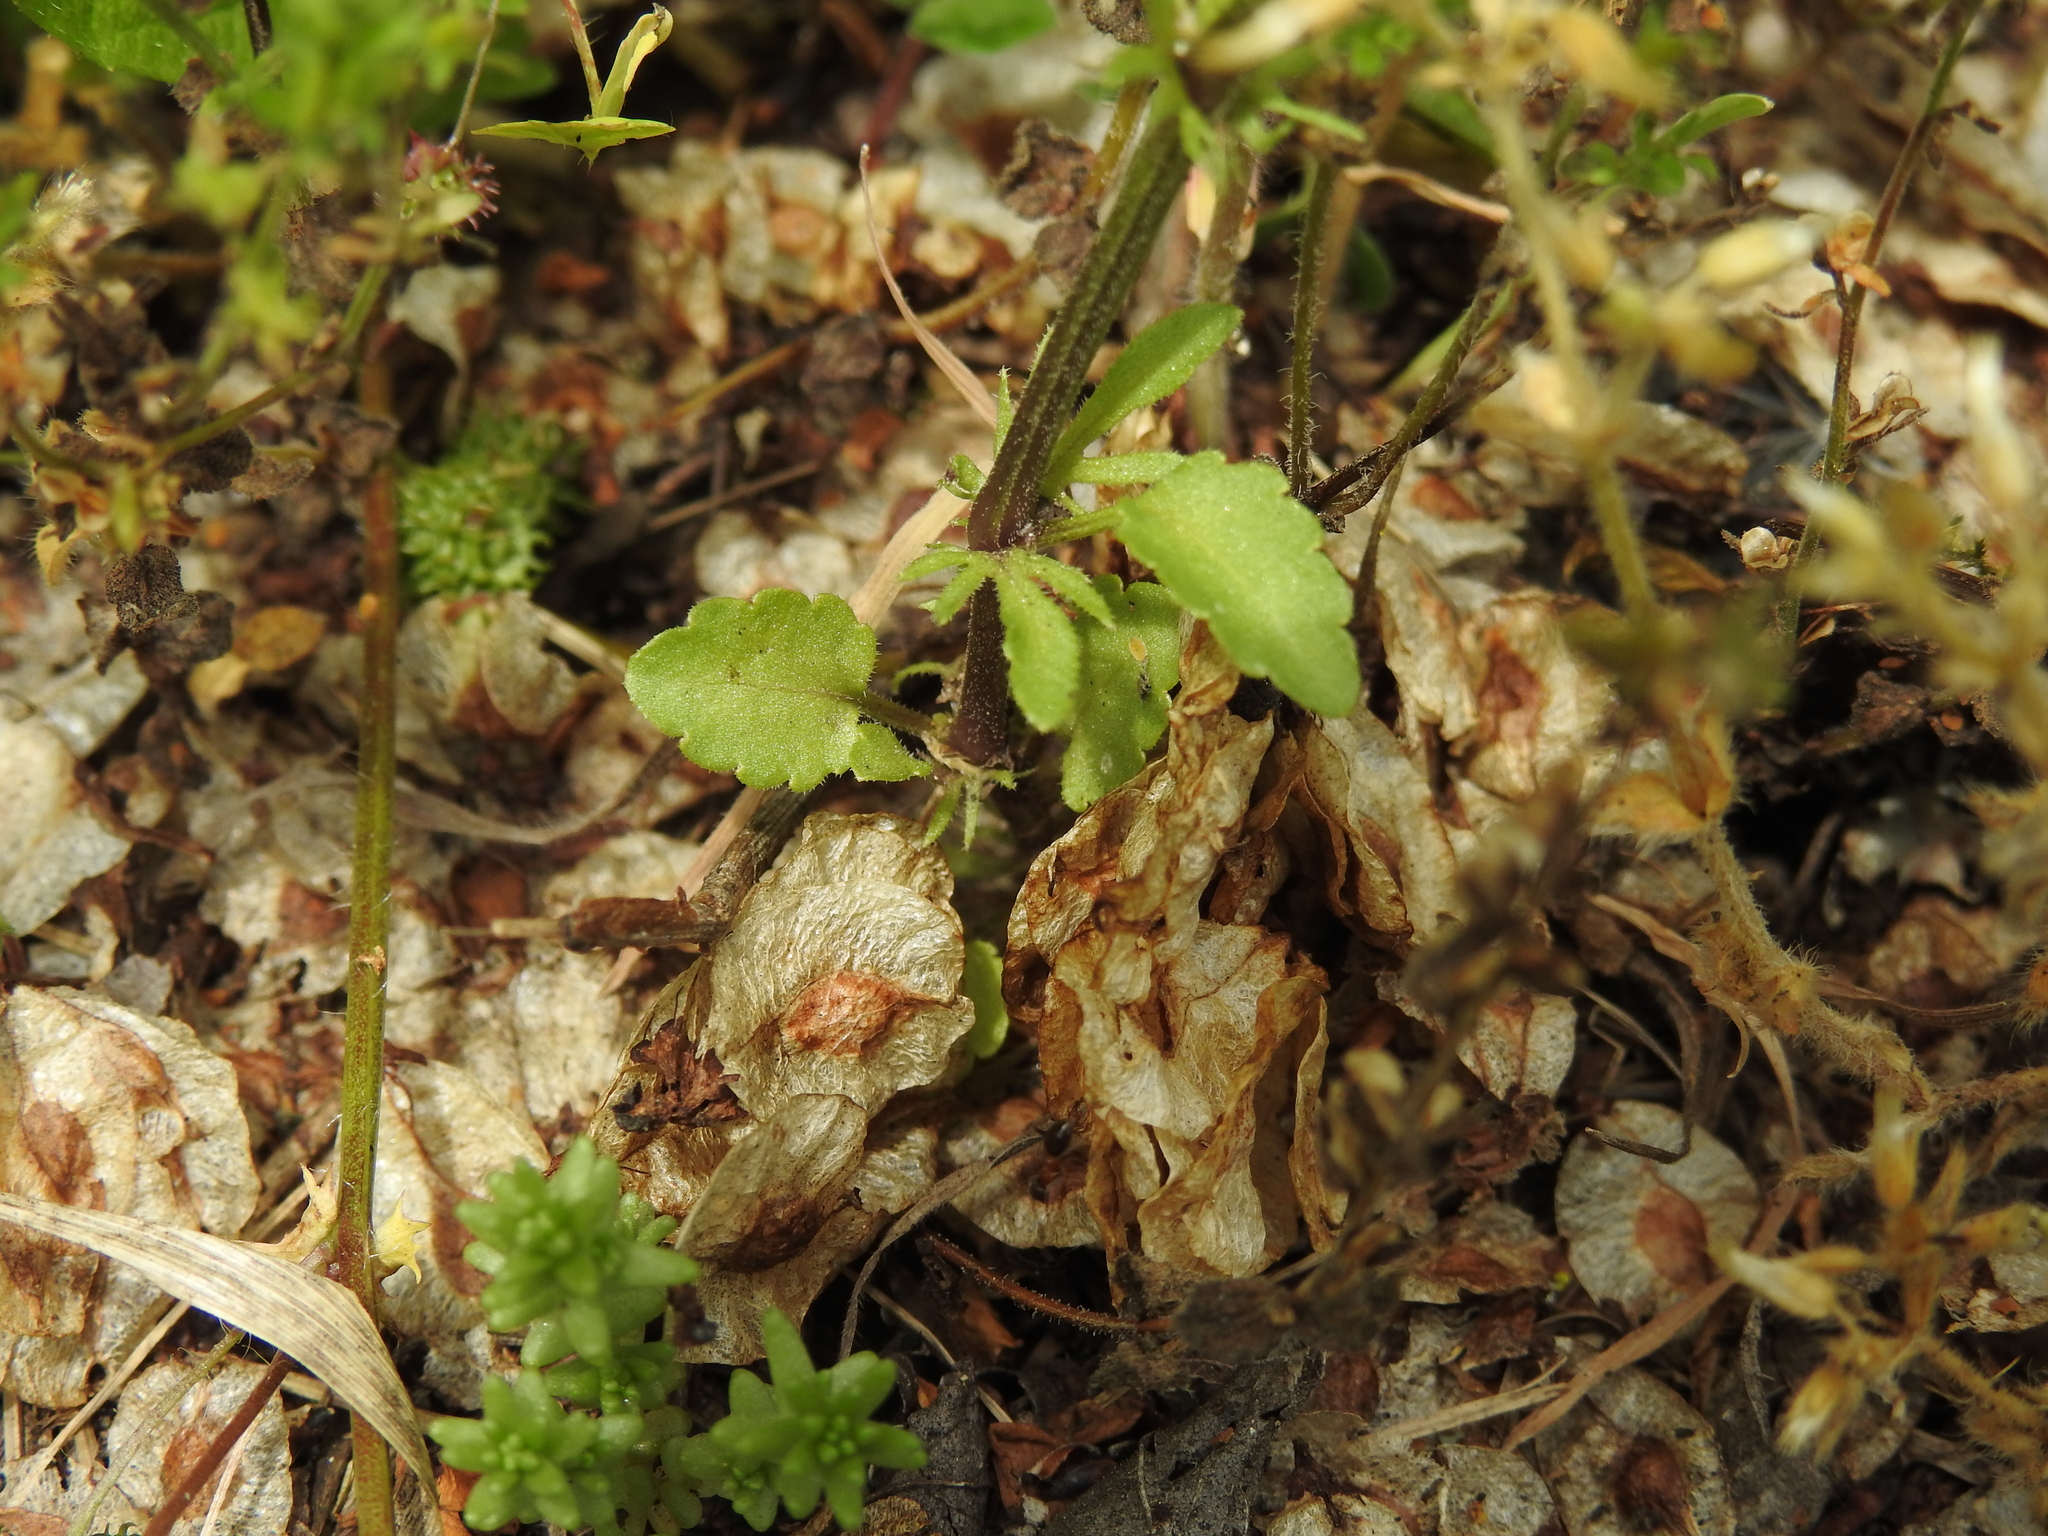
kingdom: Plantae
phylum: Tracheophyta
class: Magnoliopsida
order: Malpighiales
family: Violaceae
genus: Viola
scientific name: Viola arvensis
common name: Field pansy
